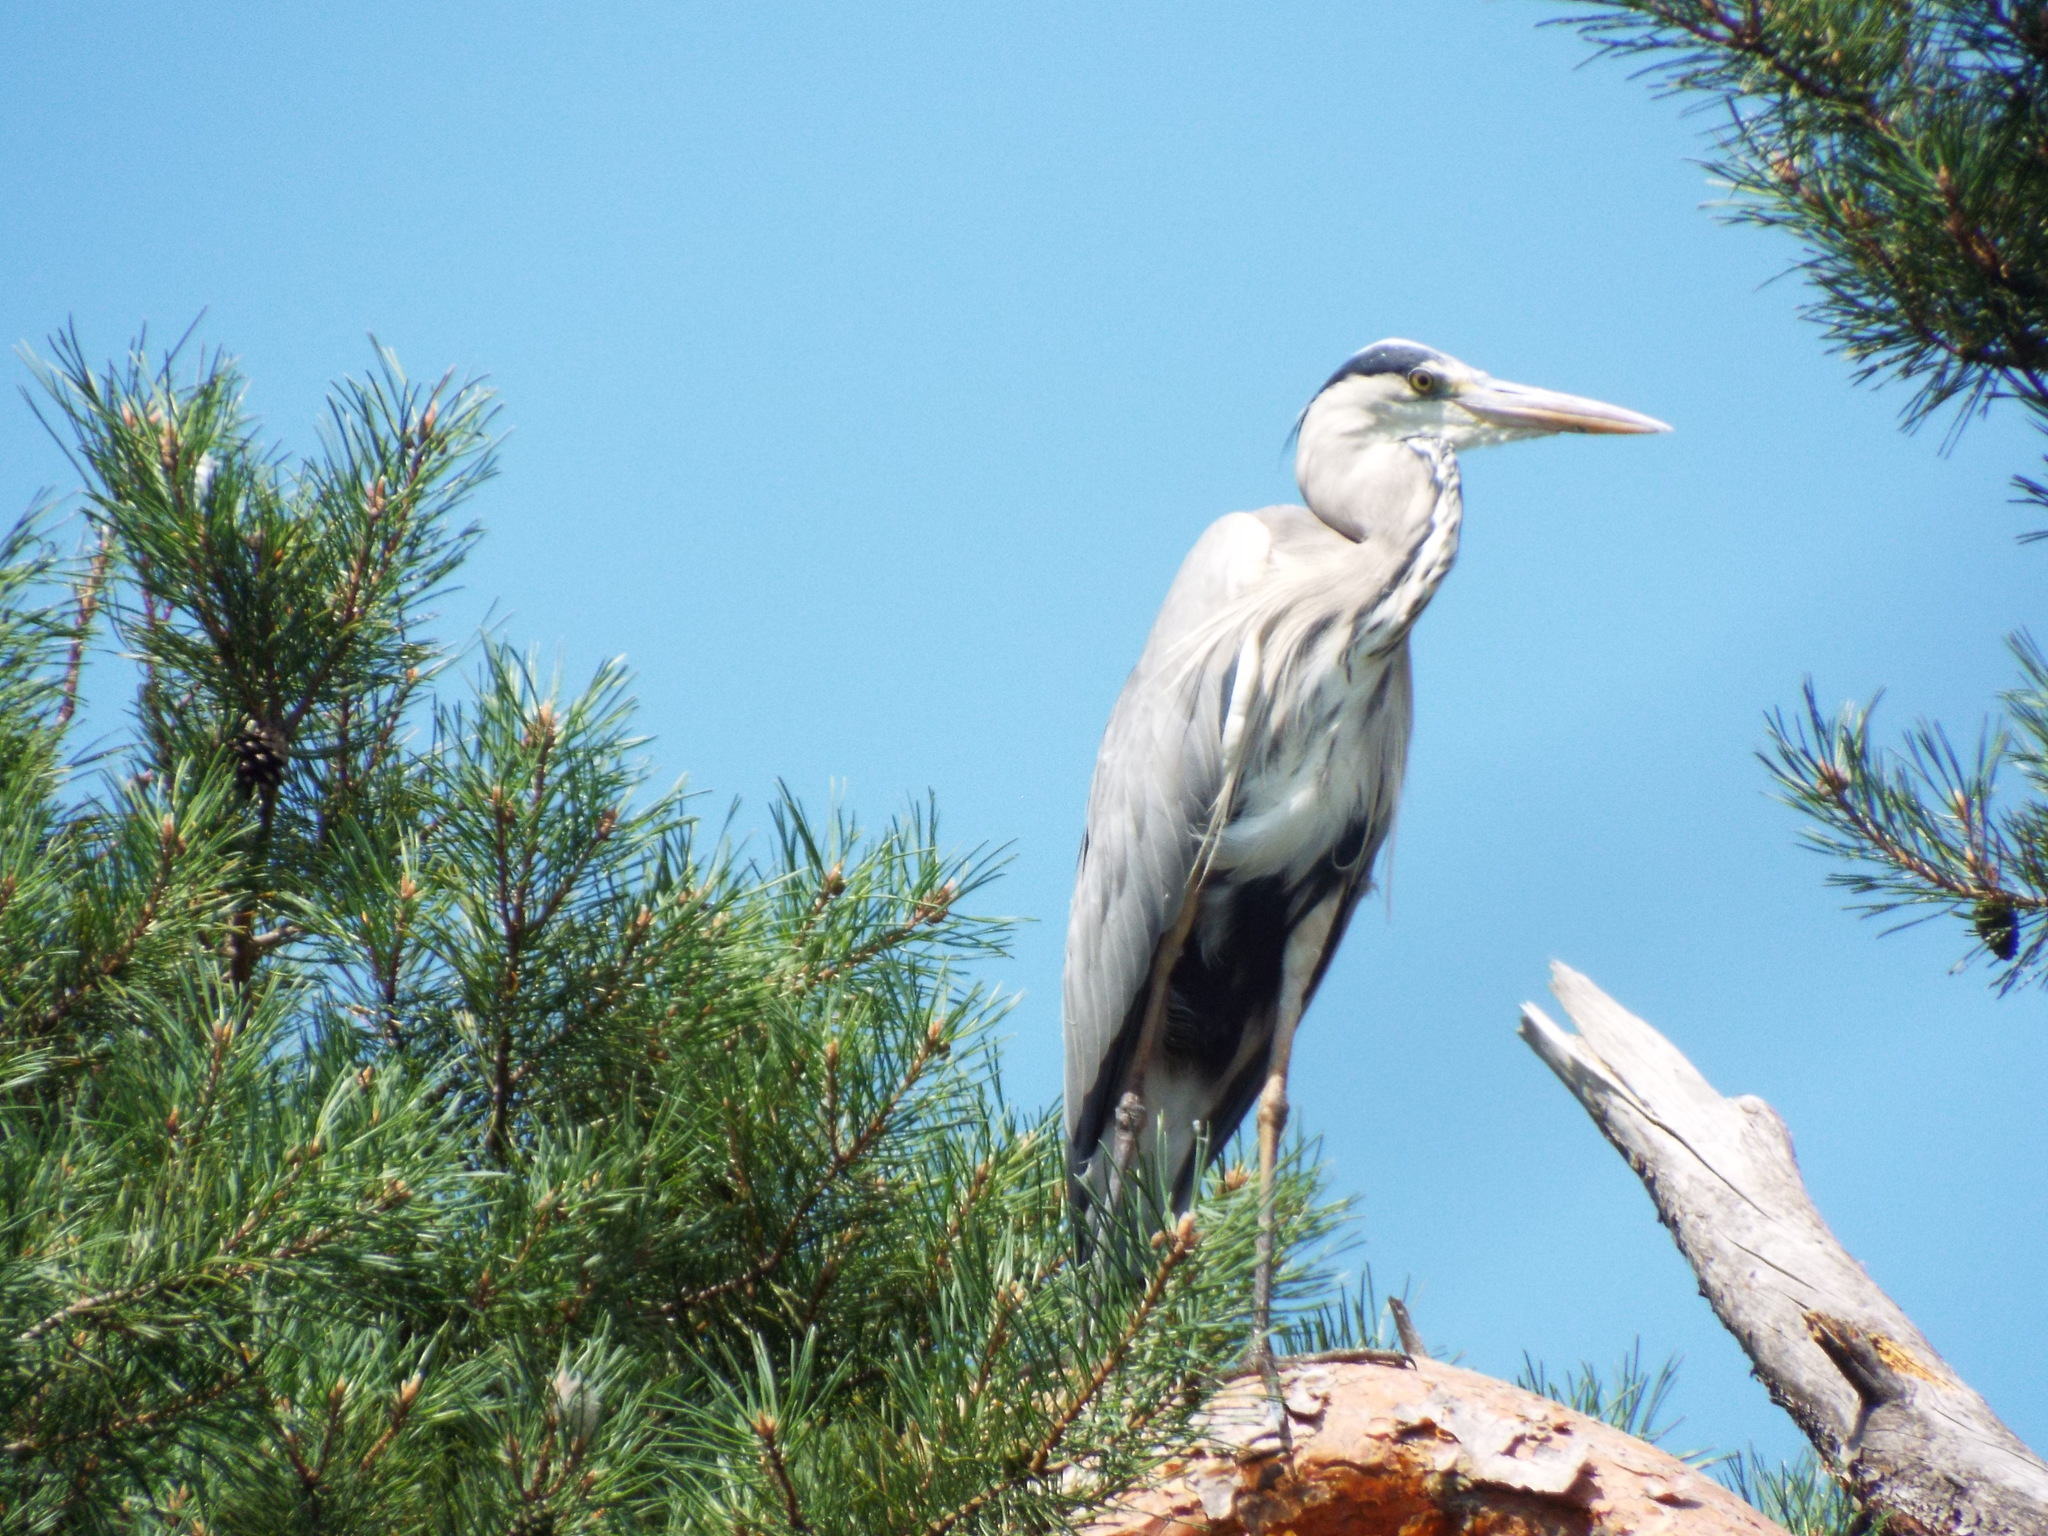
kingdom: Animalia
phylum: Chordata
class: Aves
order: Pelecaniformes
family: Ardeidae
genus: Ardea
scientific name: Ardea cinerea
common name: Grey heron
